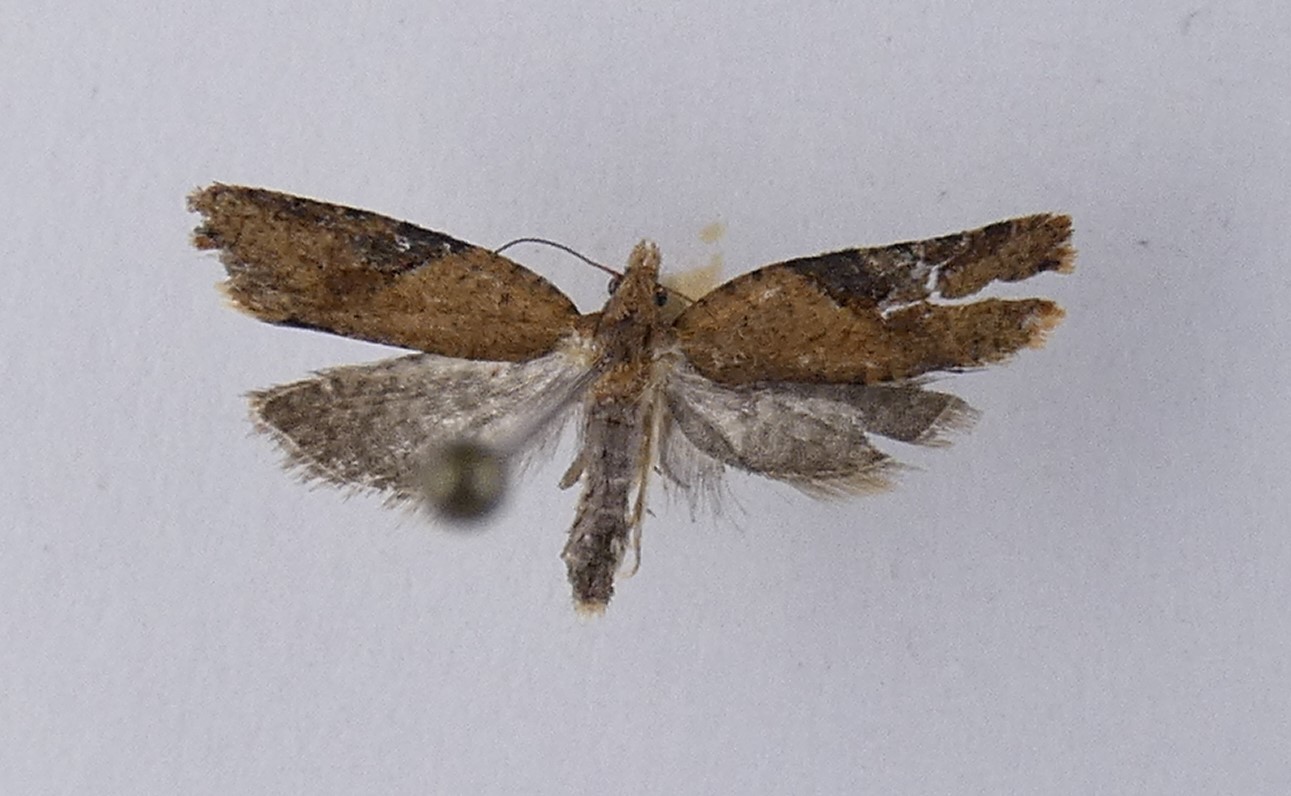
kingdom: Animalia
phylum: Arthropoda
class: Insecta
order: Lepidoptera
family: Tortricidae
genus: Capua
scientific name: Capua semiferana
